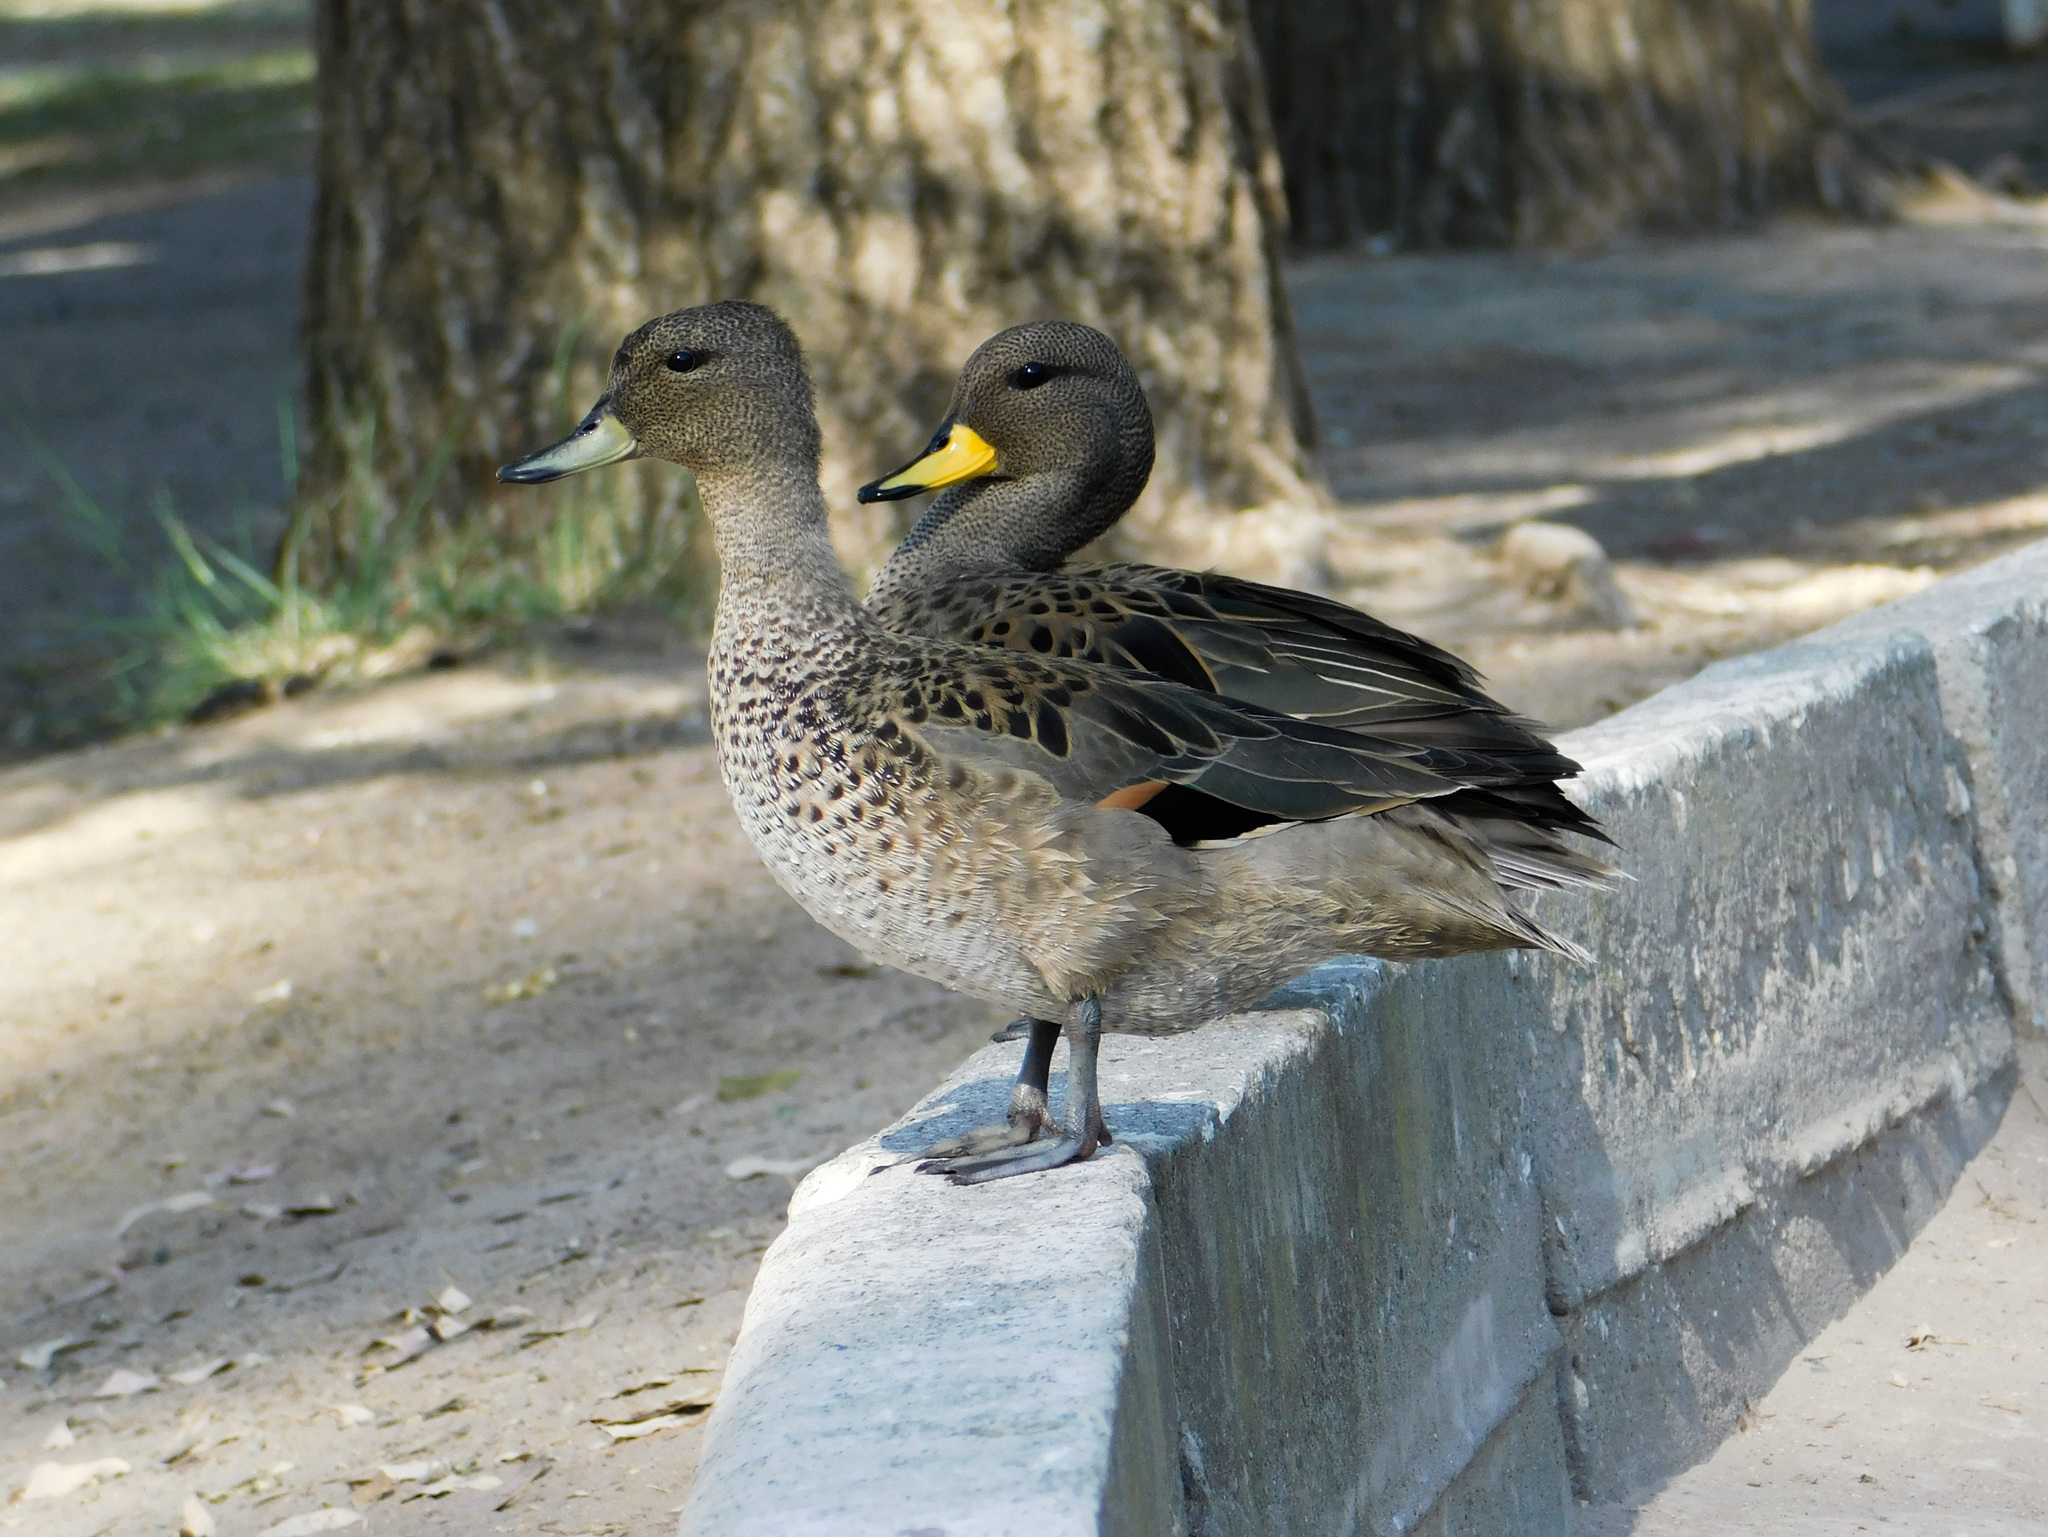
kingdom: Animalia
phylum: Chordata
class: Aves
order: Anseriformes
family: Anatidae
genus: Anas
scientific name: Anas flavirostris
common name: Yellow-billed teal
